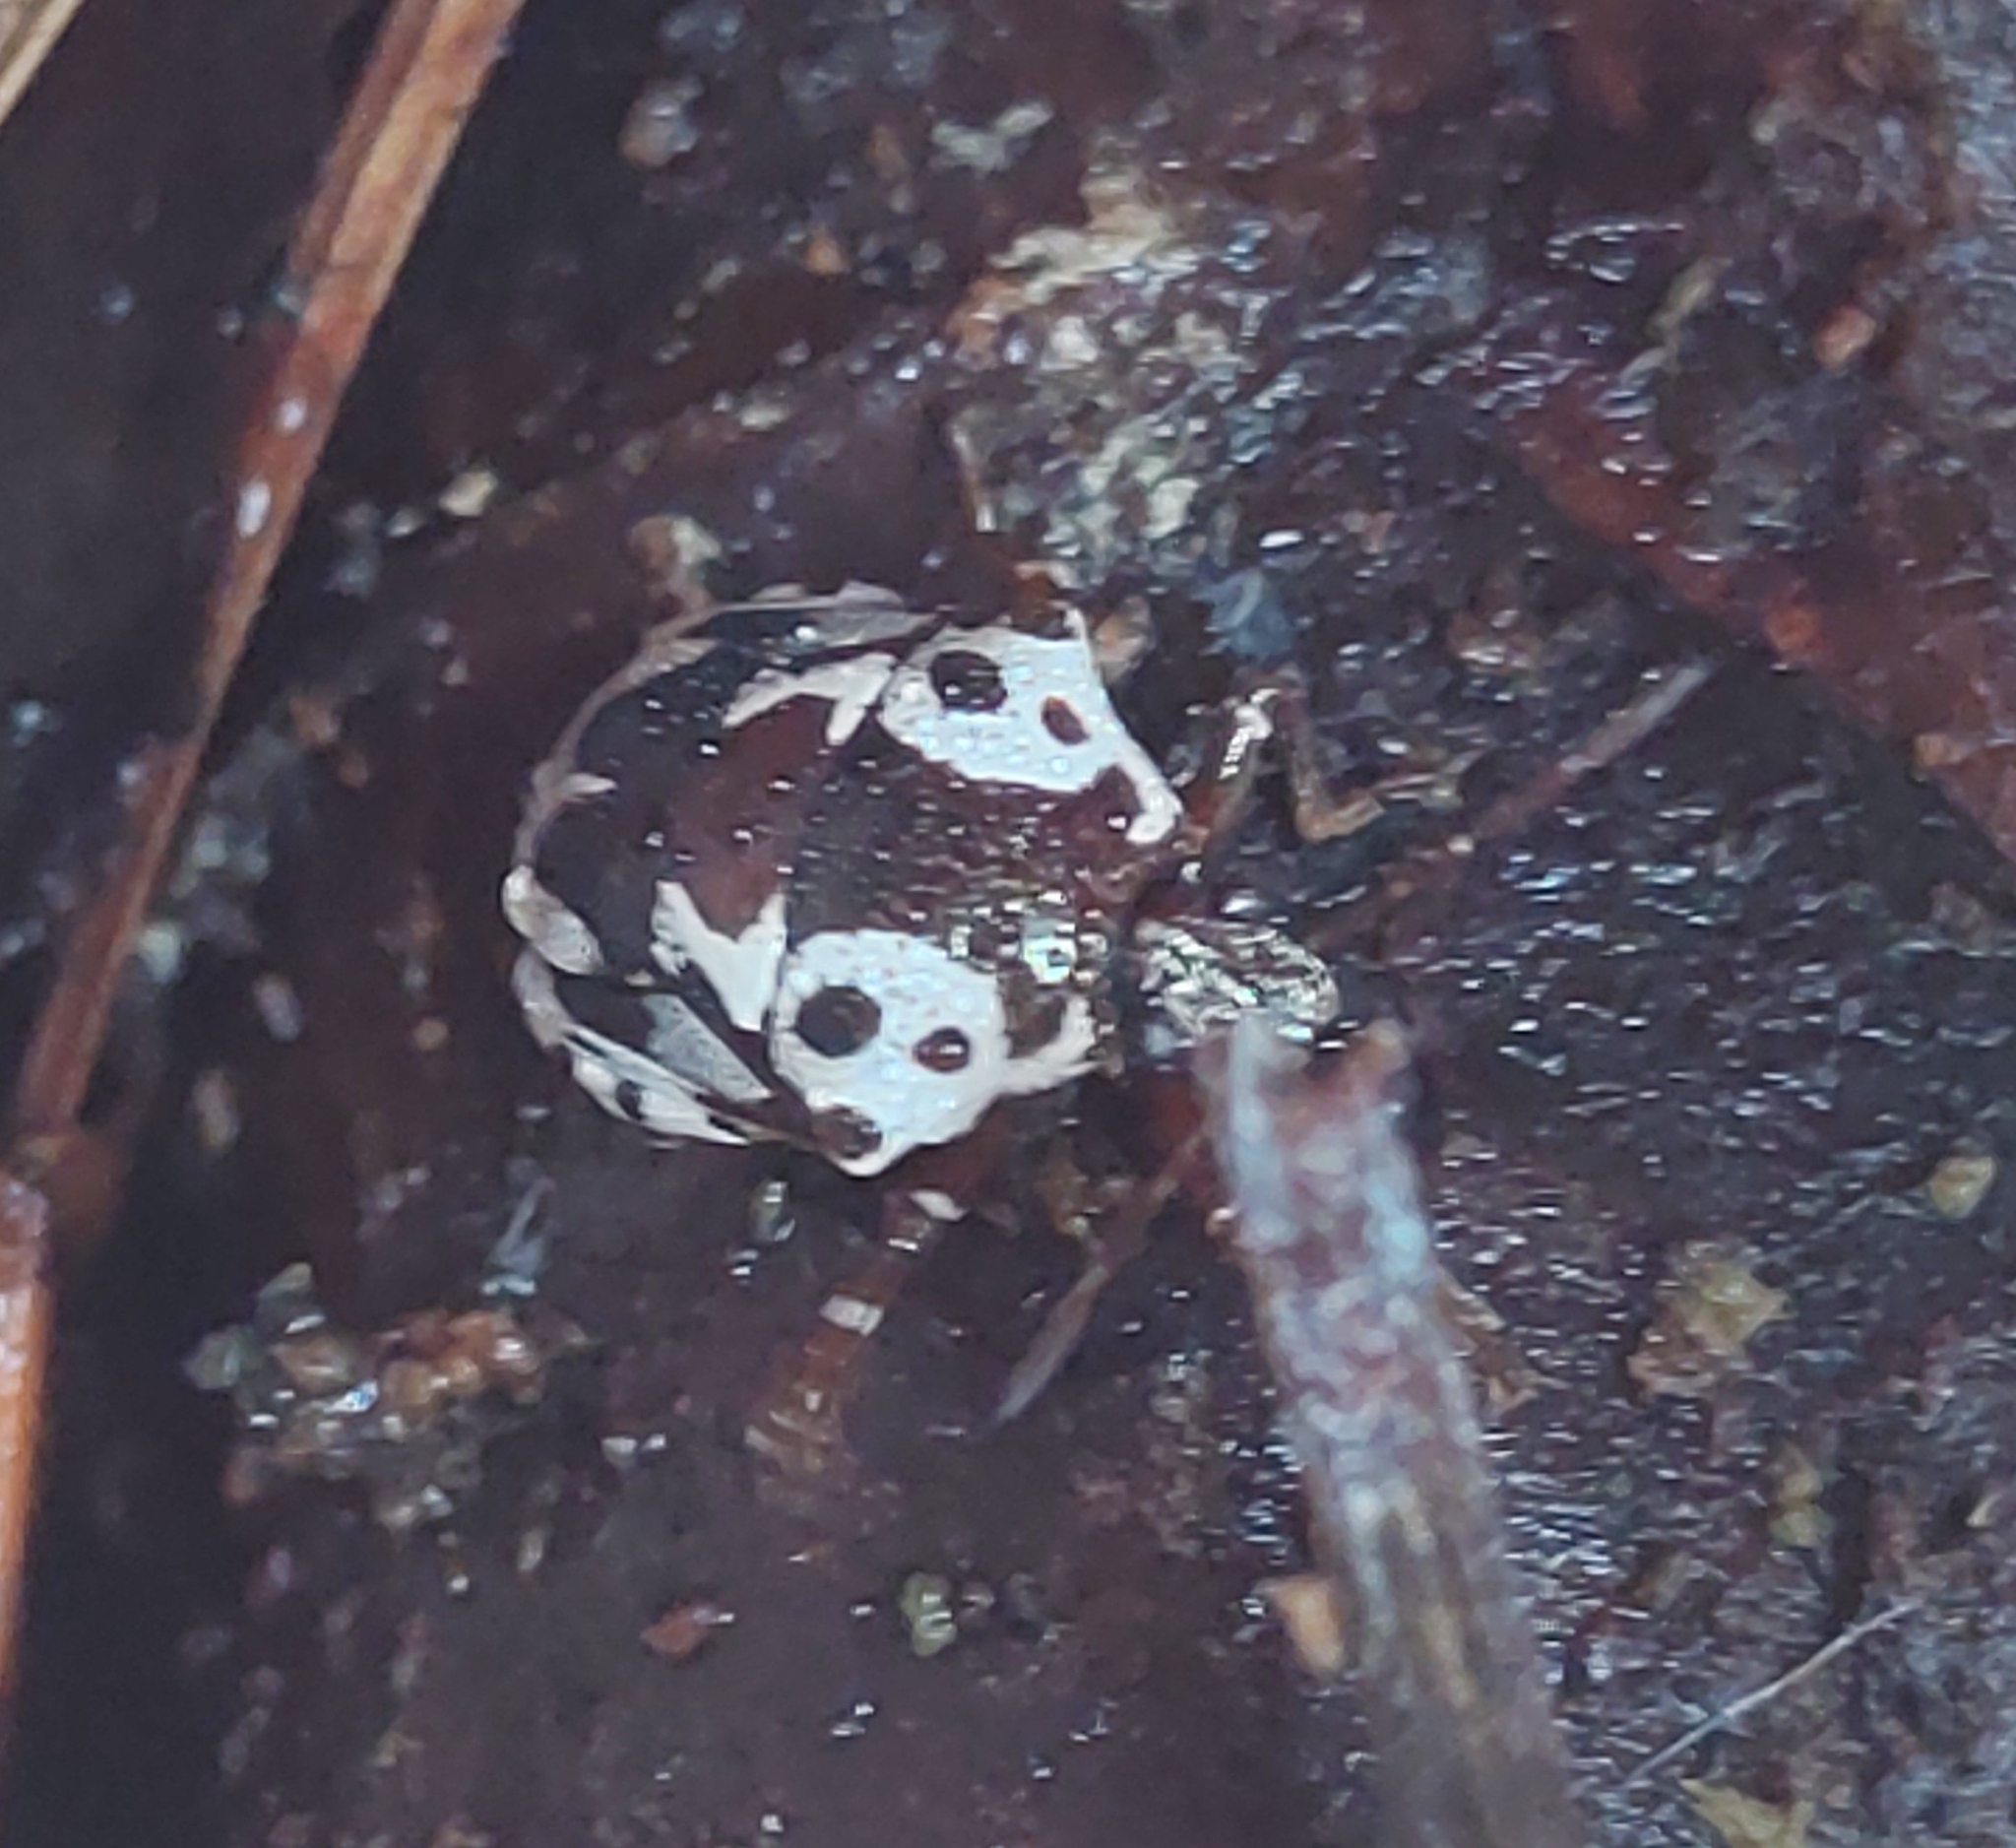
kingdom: Animalia
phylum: Arthropoda
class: Insecta
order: Hemiptera
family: Pentatomidae
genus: Stiretrus
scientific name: Stiretrus anchorago
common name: Anchor stink bug
